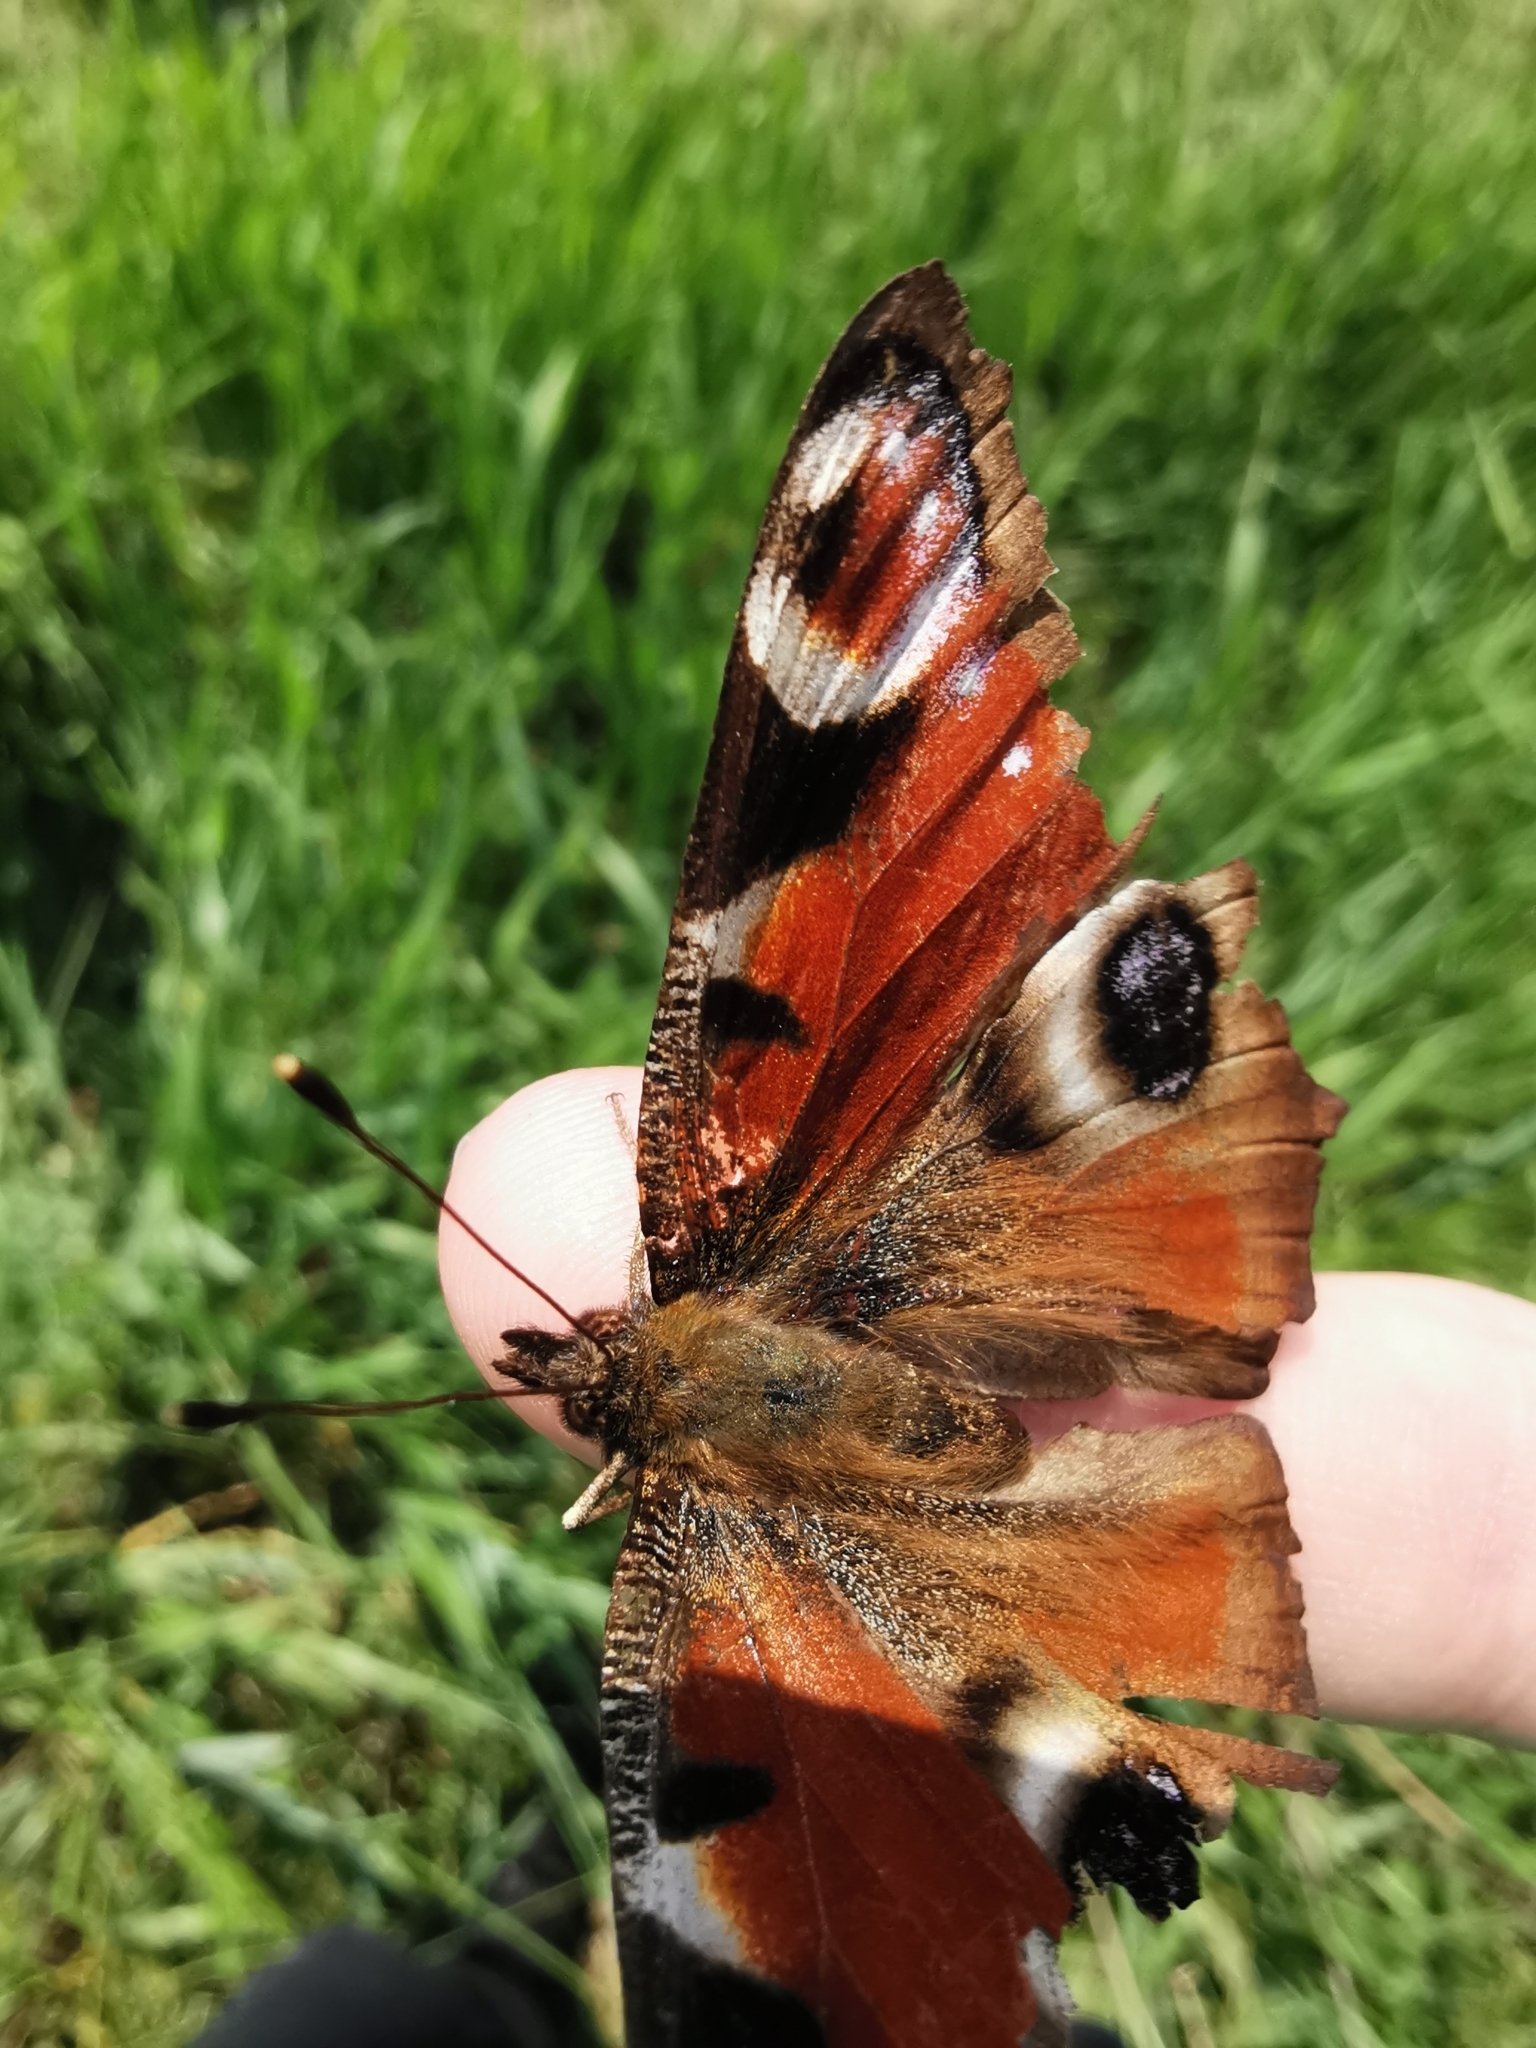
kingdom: Animalia
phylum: Arthropoda
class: Insecta
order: Lepidoptera
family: Nymphalidae
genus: Aglais
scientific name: Aglais io
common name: Peacock
